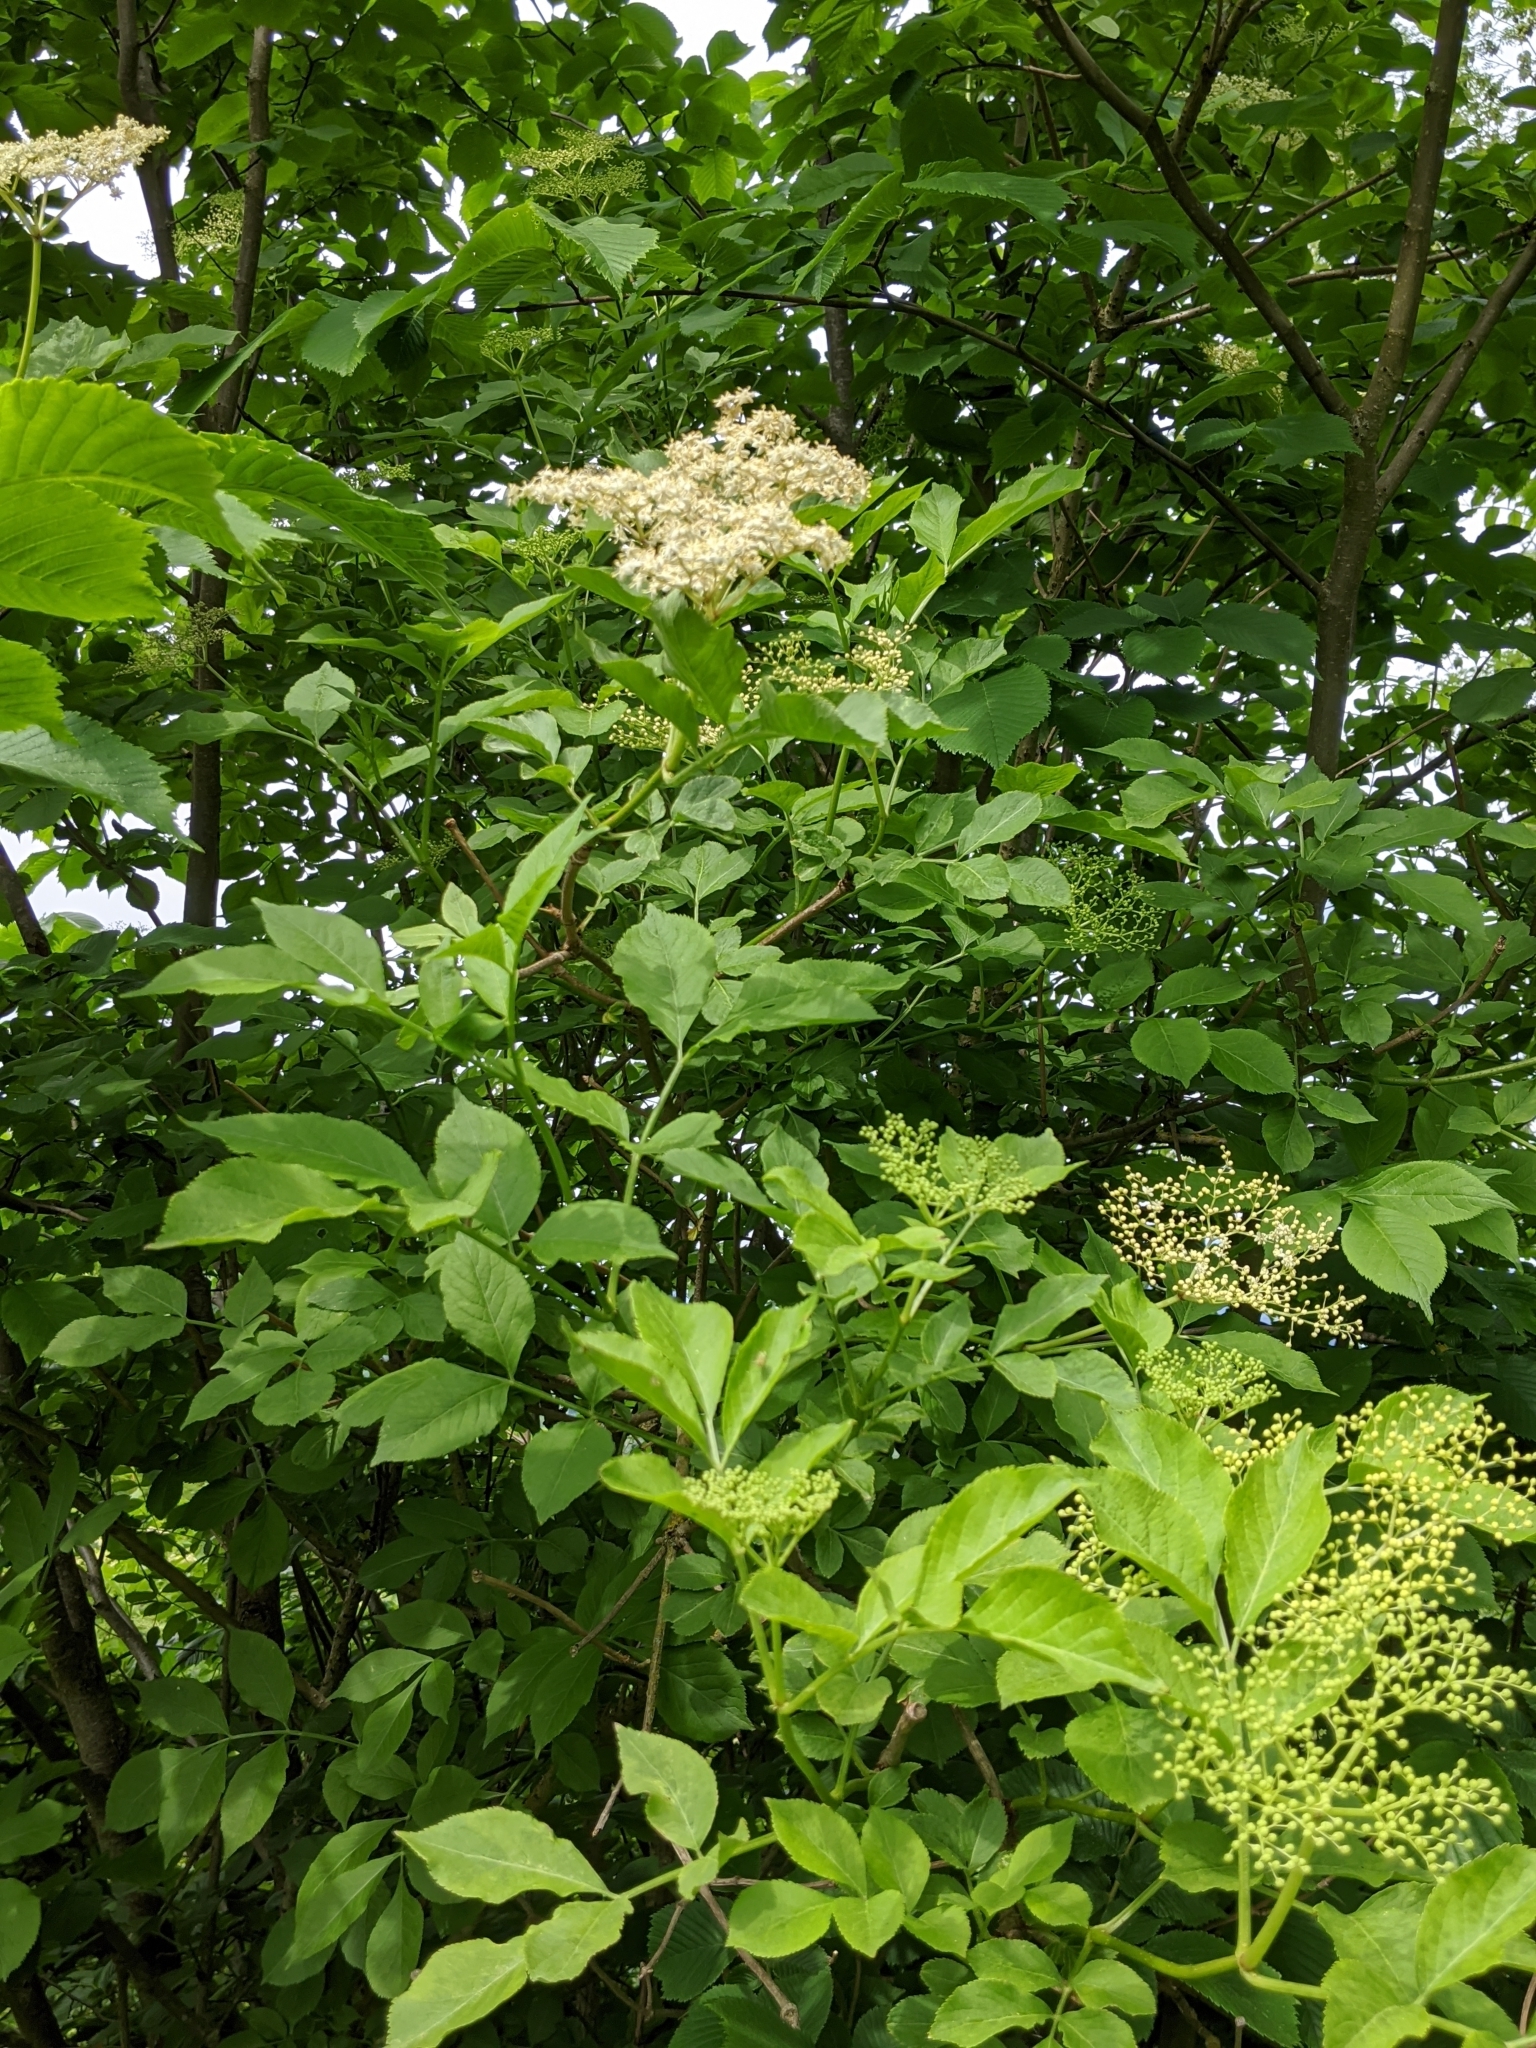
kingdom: Plantae
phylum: Tracheophyta
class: Magnoliopsida
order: Dipsacales
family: Viburnaceae
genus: Sambucus
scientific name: Sambucus nigra
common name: Elder
